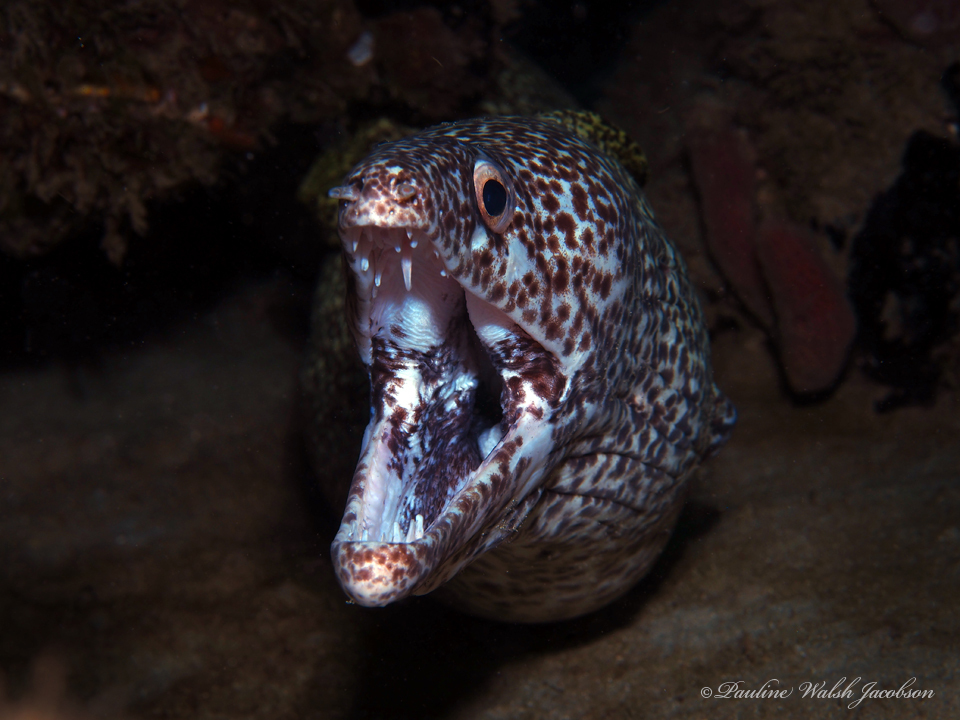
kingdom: Animalia
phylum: Chordata
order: Anguilliformes
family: Muraenidae
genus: Gymnothorax
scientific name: Gymnothorax moringa
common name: Spotted moray
